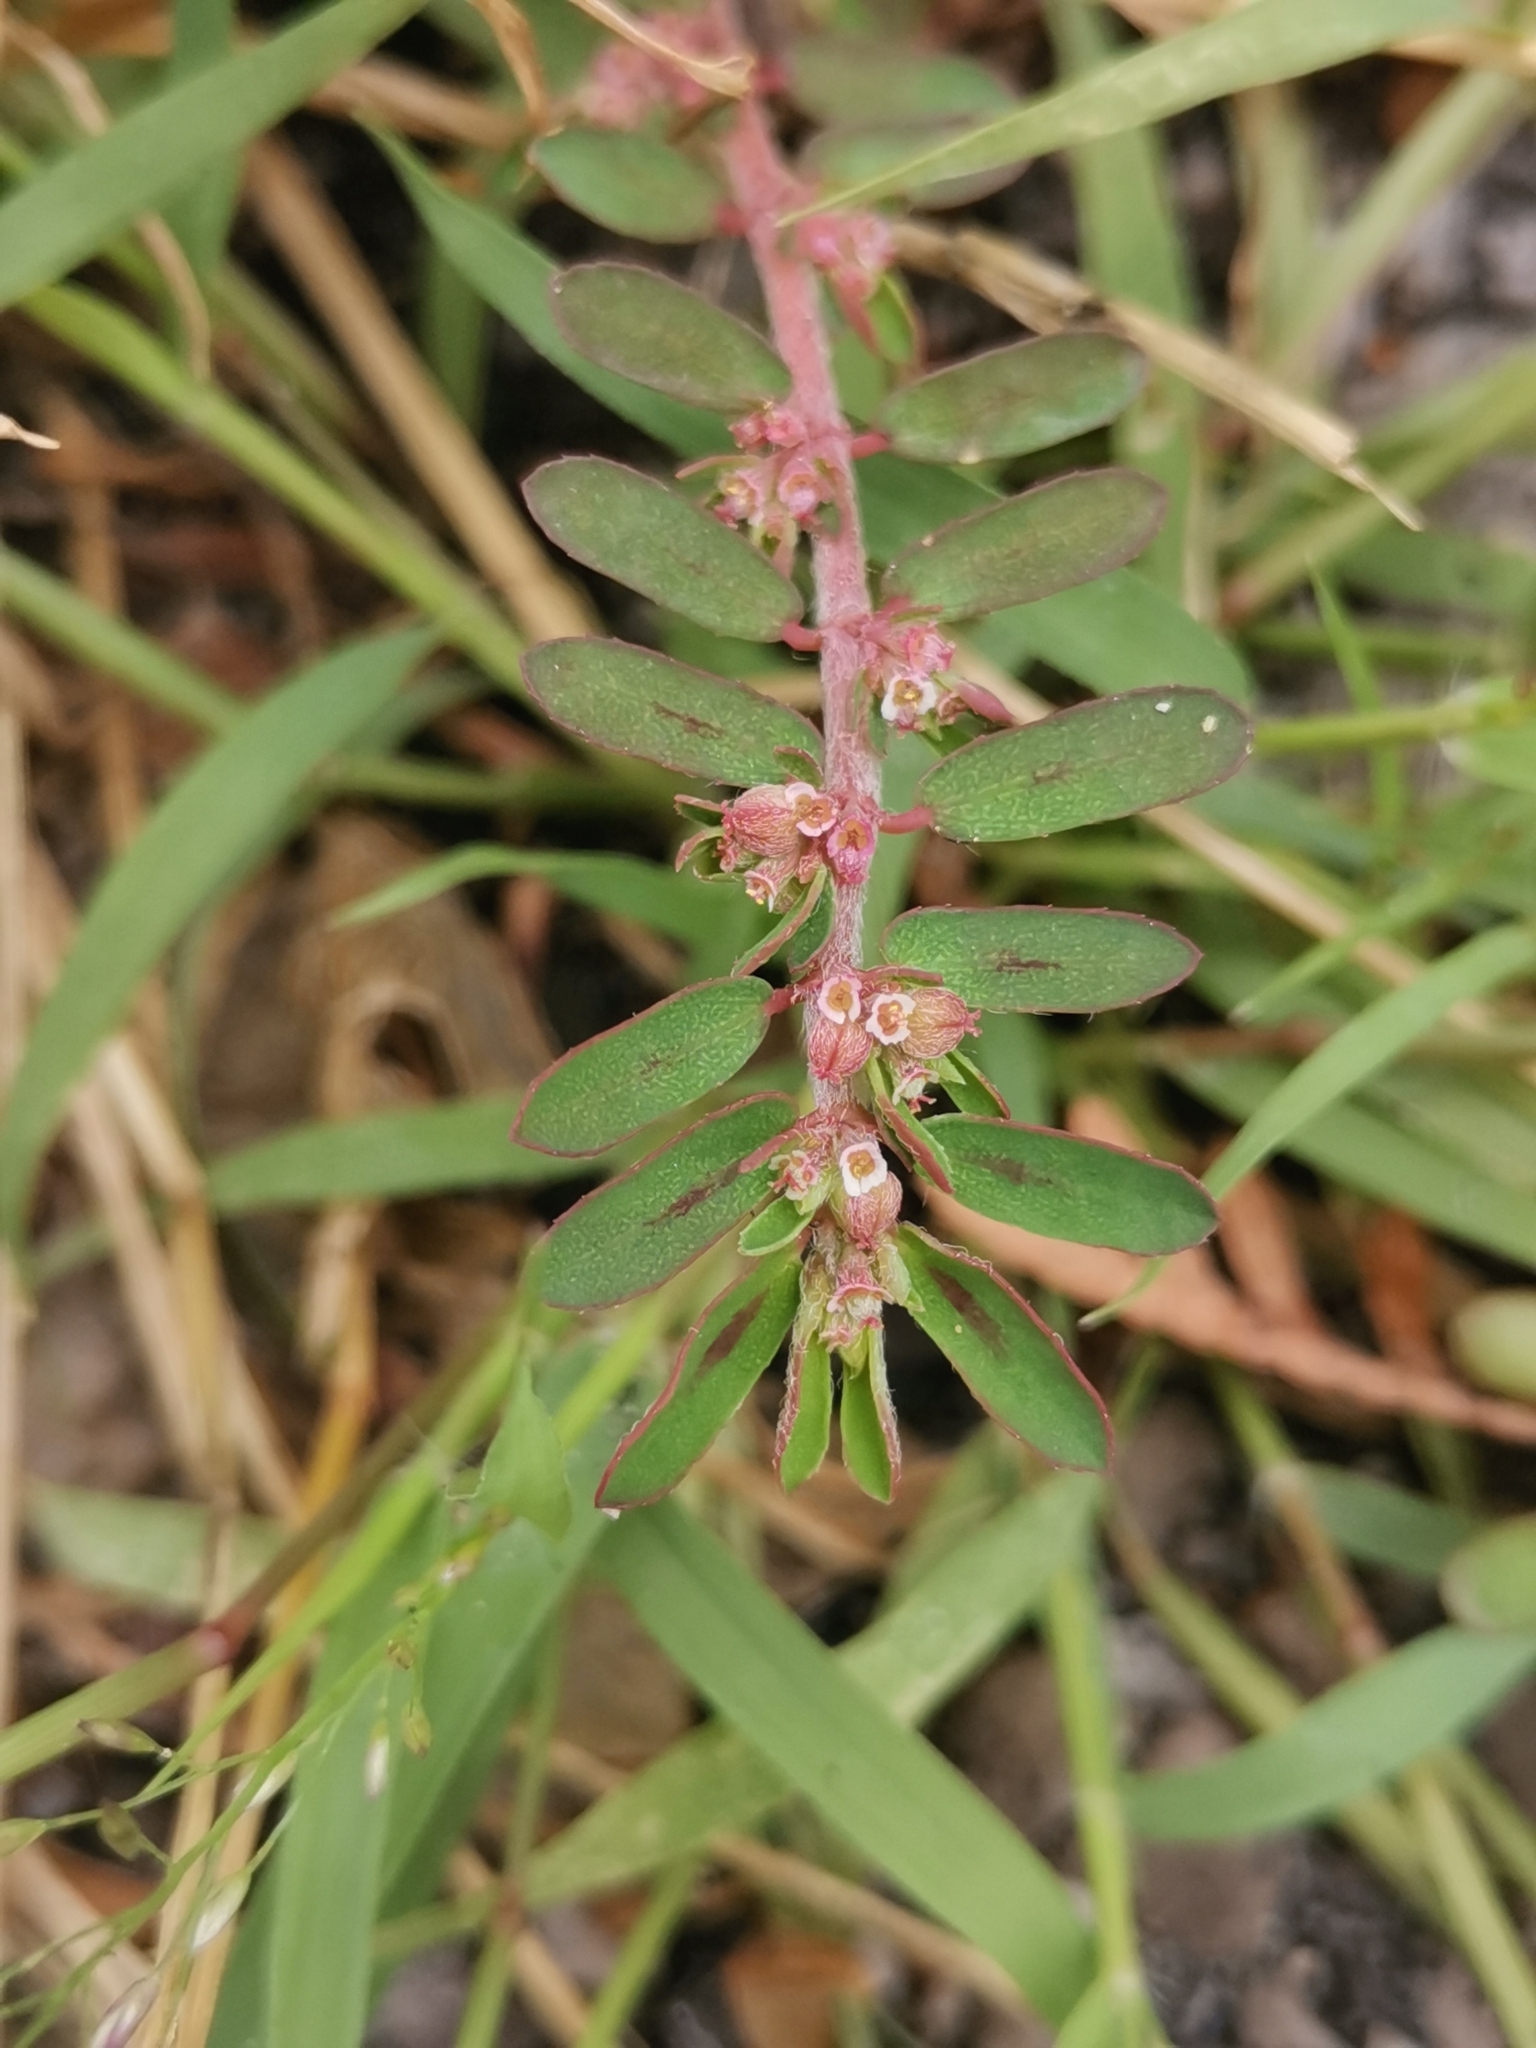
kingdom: Plantae
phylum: Tracheophyta
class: Magnoliopsida
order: Malpighiales
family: Euphorbiaceae
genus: Euphorbia
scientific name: Euphorbia maculata
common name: Spotted spurge
